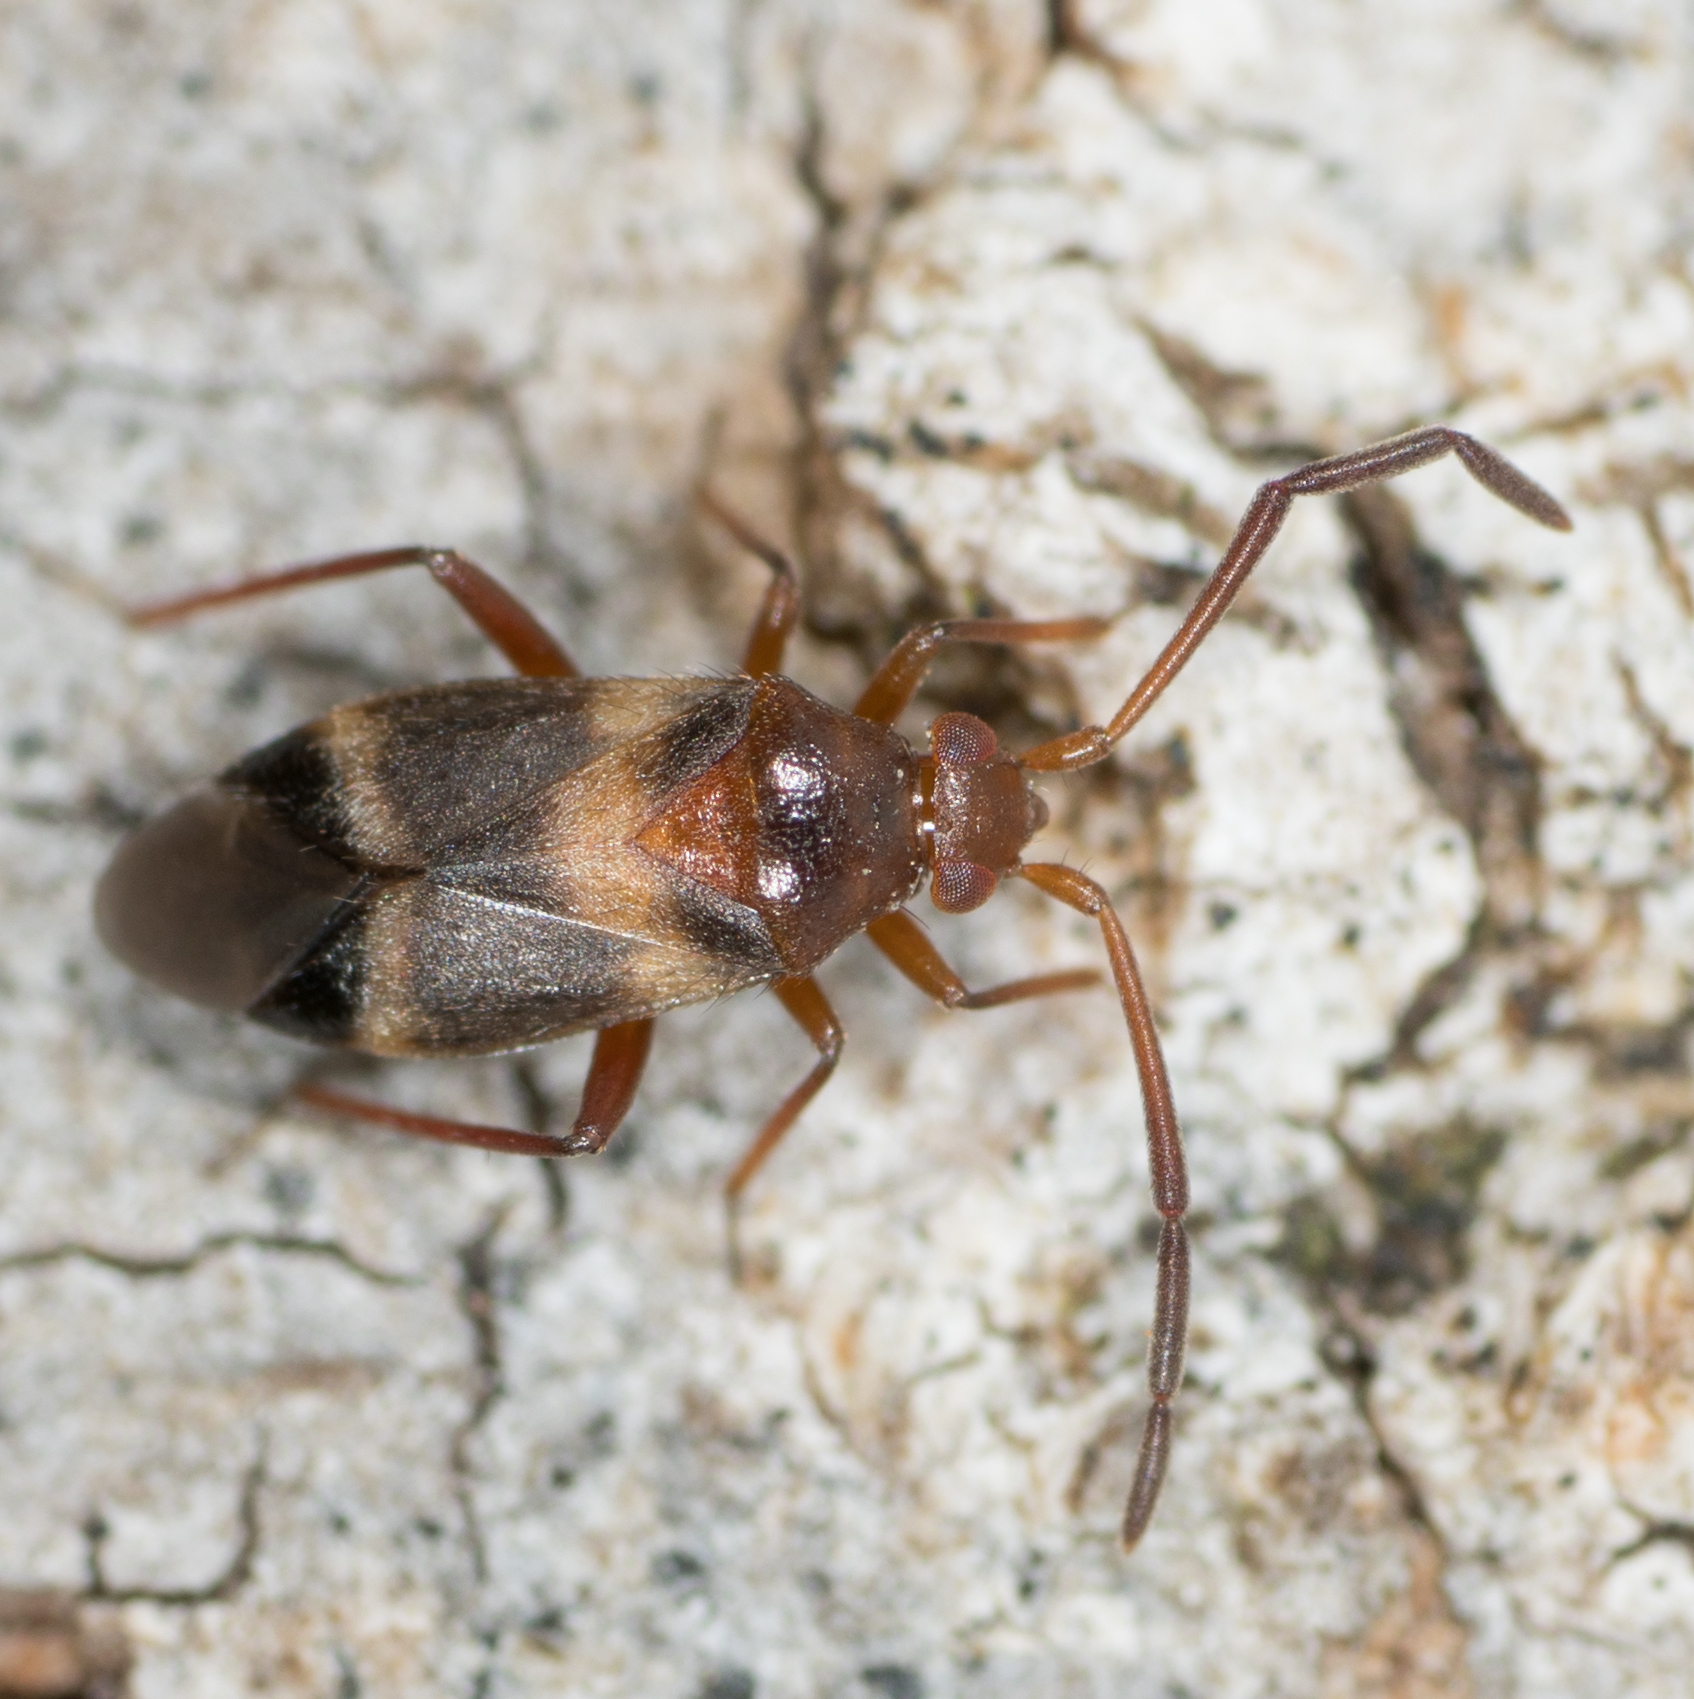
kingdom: Animalia
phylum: Arthropoda
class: Insecta
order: Hemiptera
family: Miridae
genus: Ceratocapsus
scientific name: Ceratocapsus apicatus
